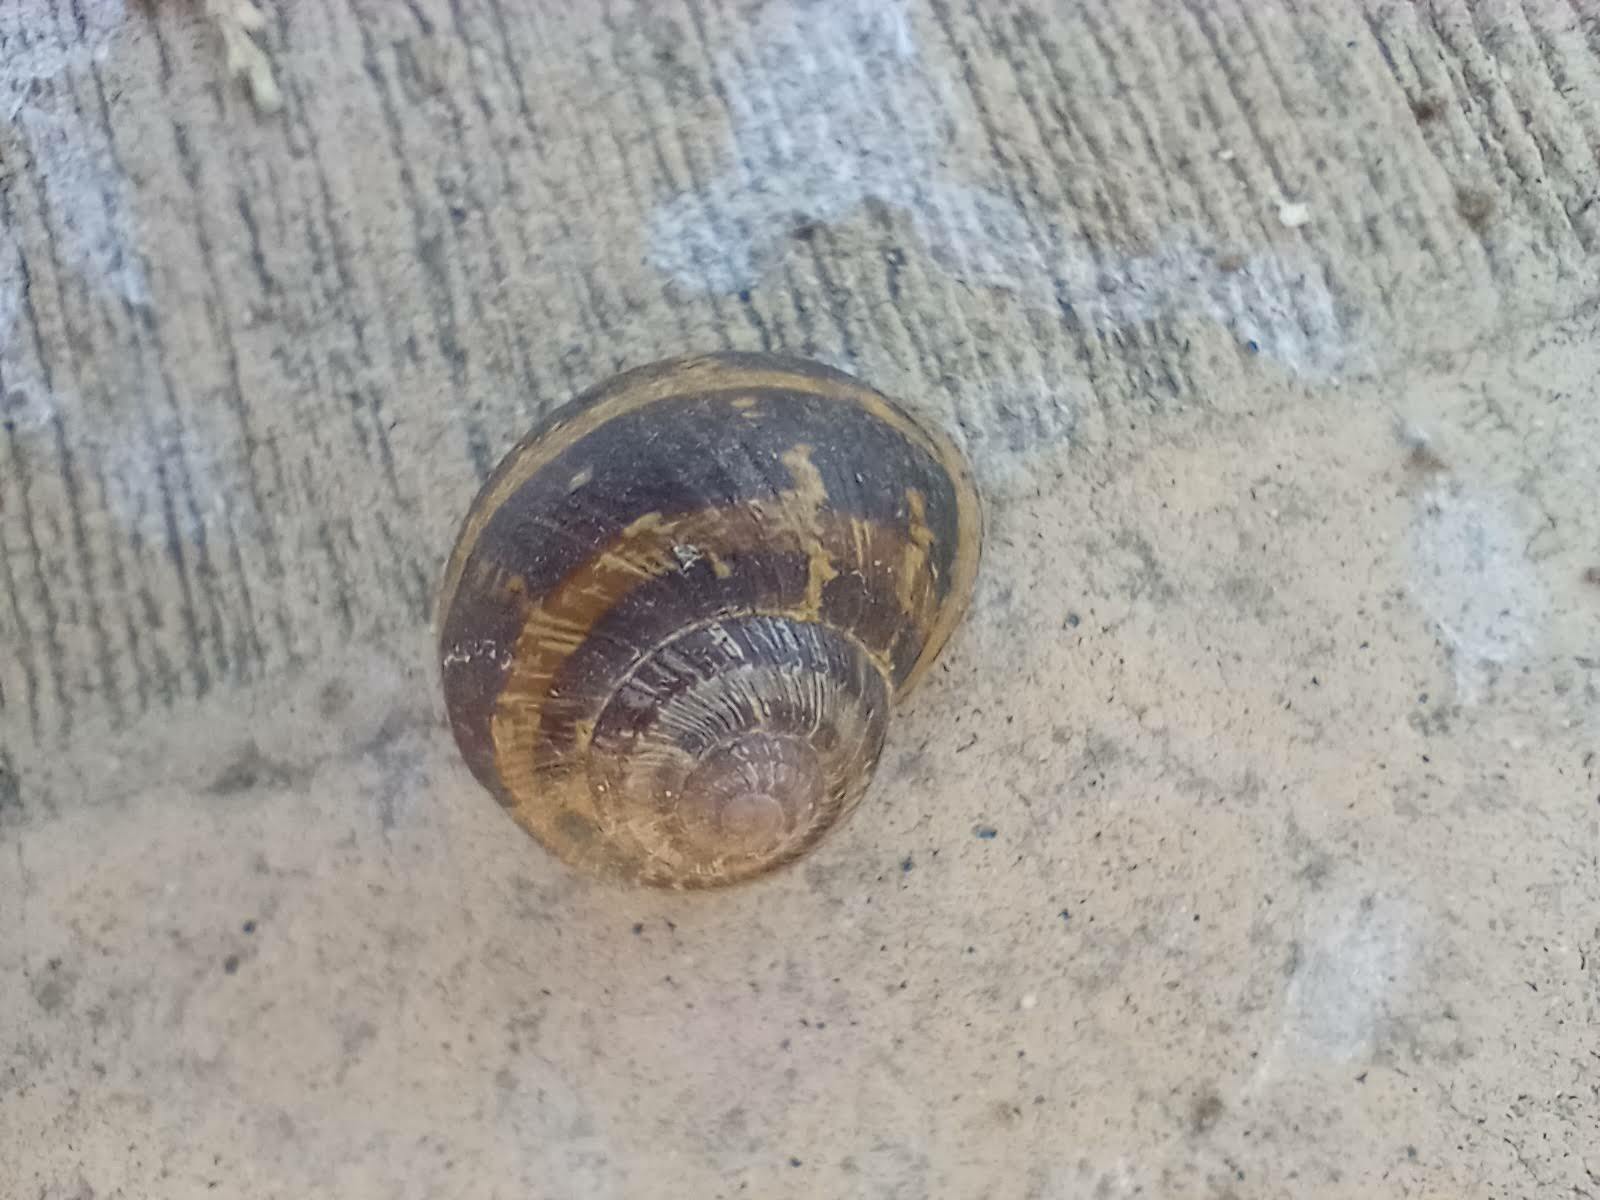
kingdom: Animalia
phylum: Mollusca
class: Gastropoda
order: Stylommatophora
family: Helicidae
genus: Cornu
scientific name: Cornu aspersum
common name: Brown garden snail
